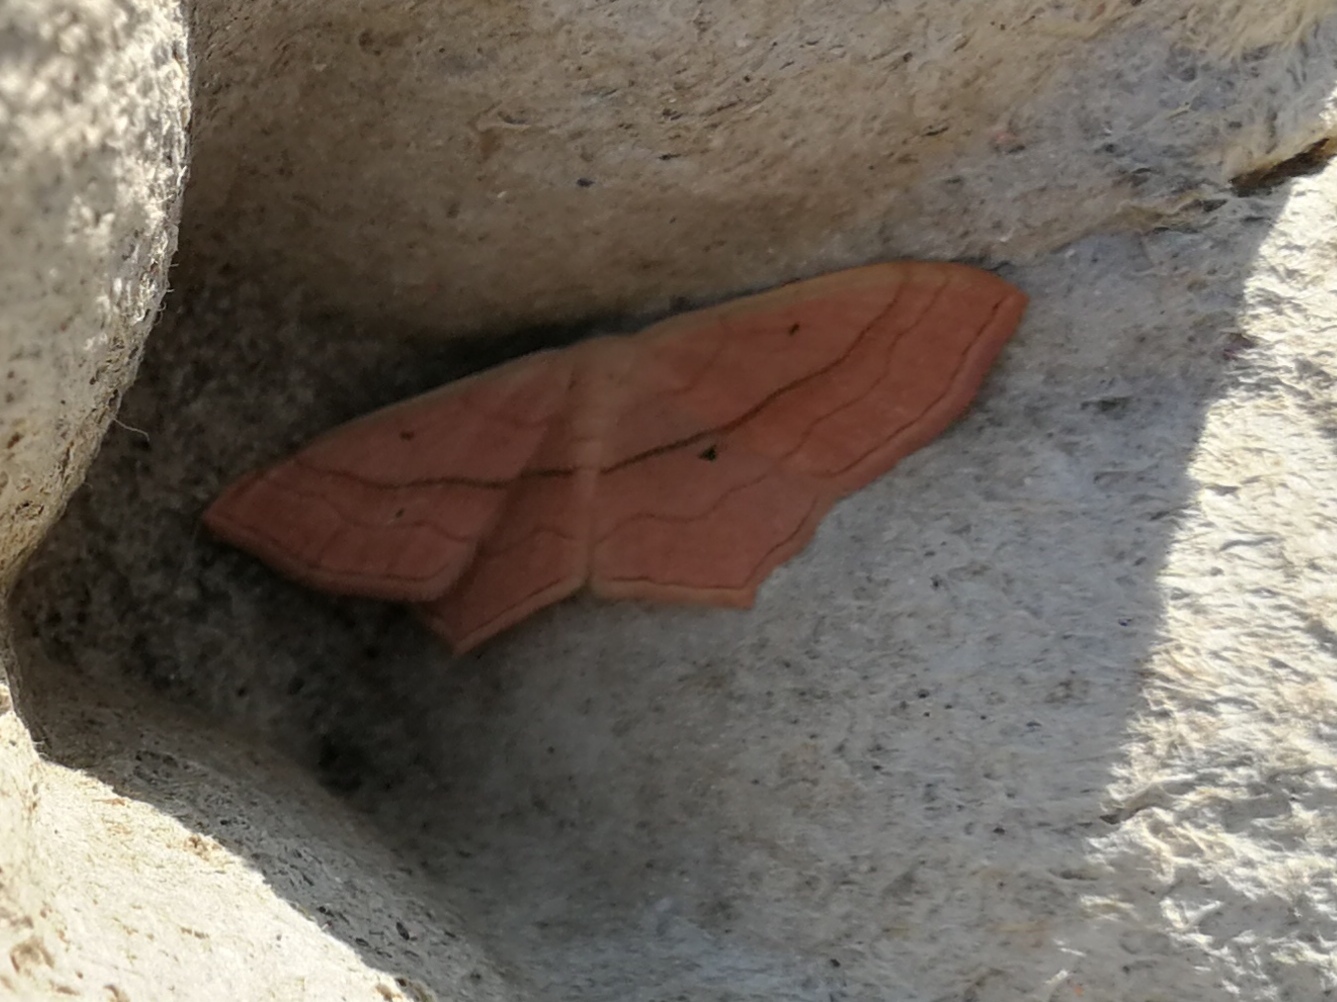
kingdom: Animalia
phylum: Arthropoda
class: Insecta
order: Lepidoptera
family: Geometridae
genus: Scopula
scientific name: Scopula imitaria
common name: Small blood-vein
